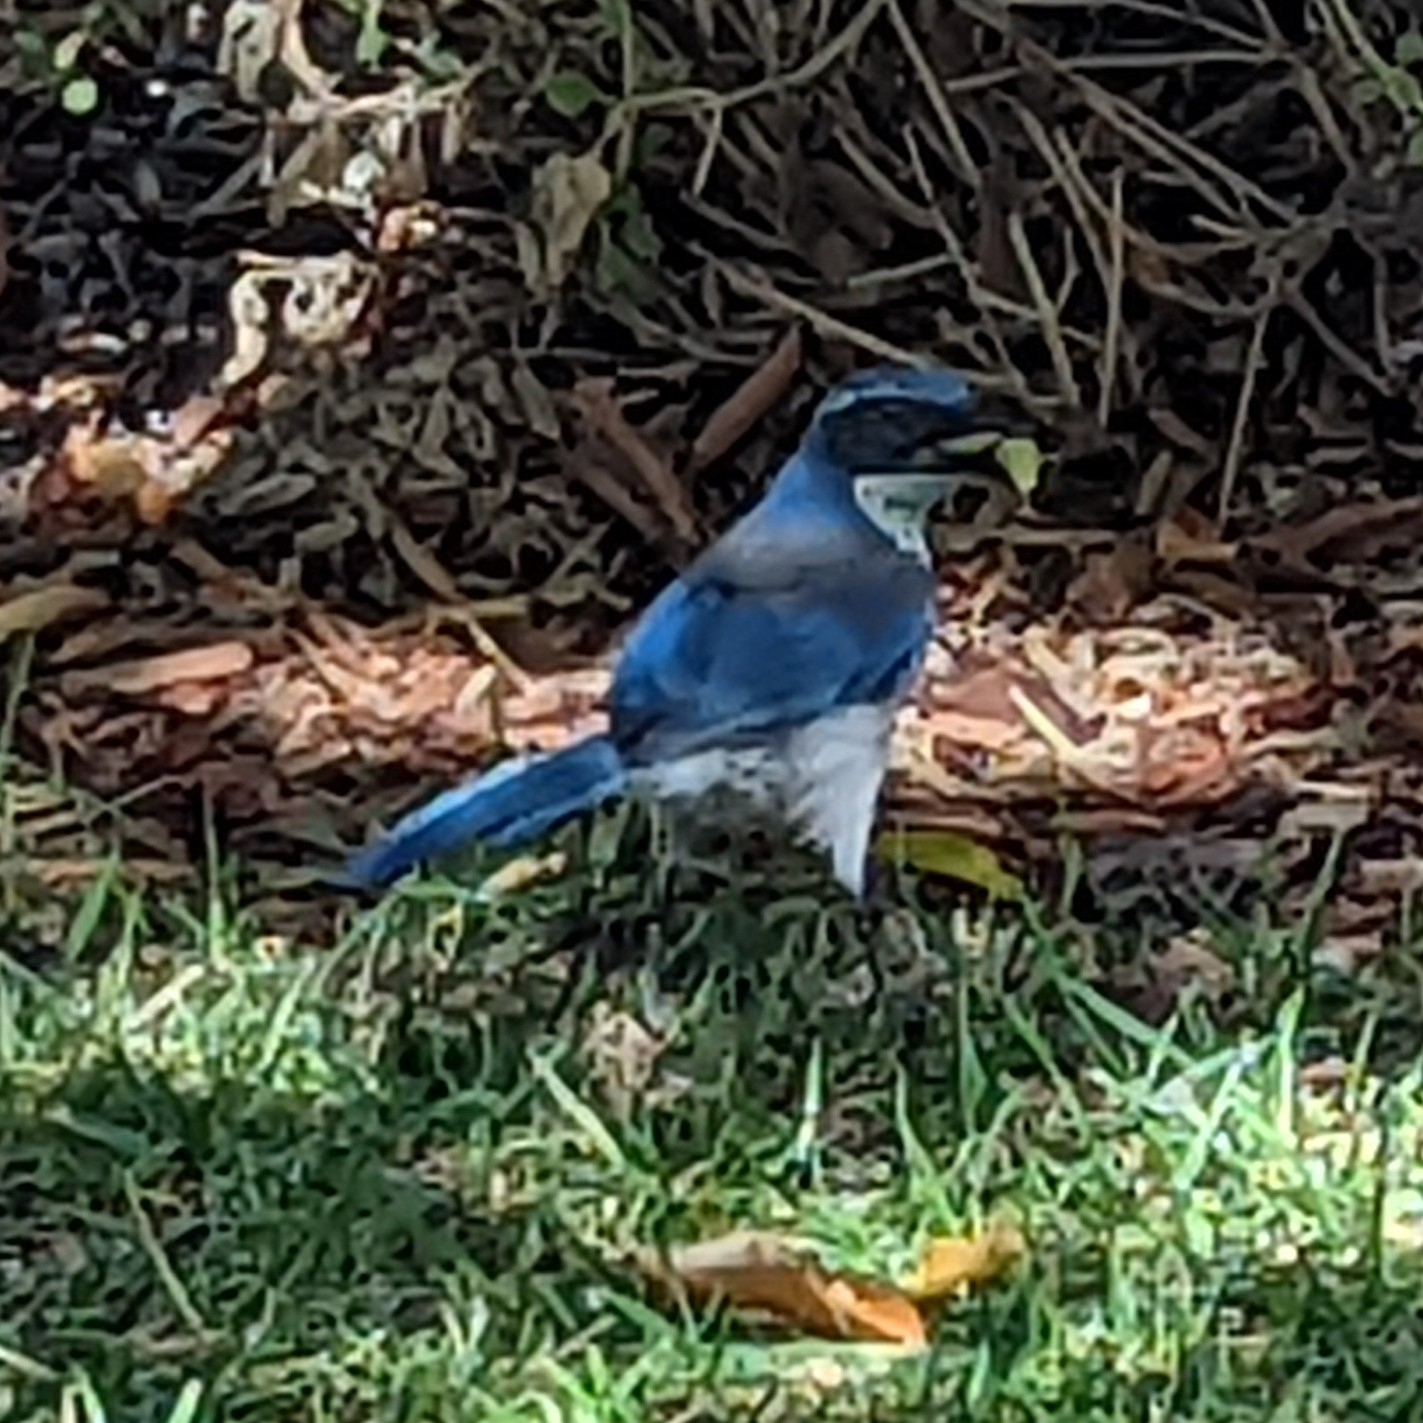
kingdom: Animalia
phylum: Chordata
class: Aves
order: Passeriformes
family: Corvidae
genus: Aphelocoma
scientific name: Aphelocoma californica
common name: California scrub-jay
